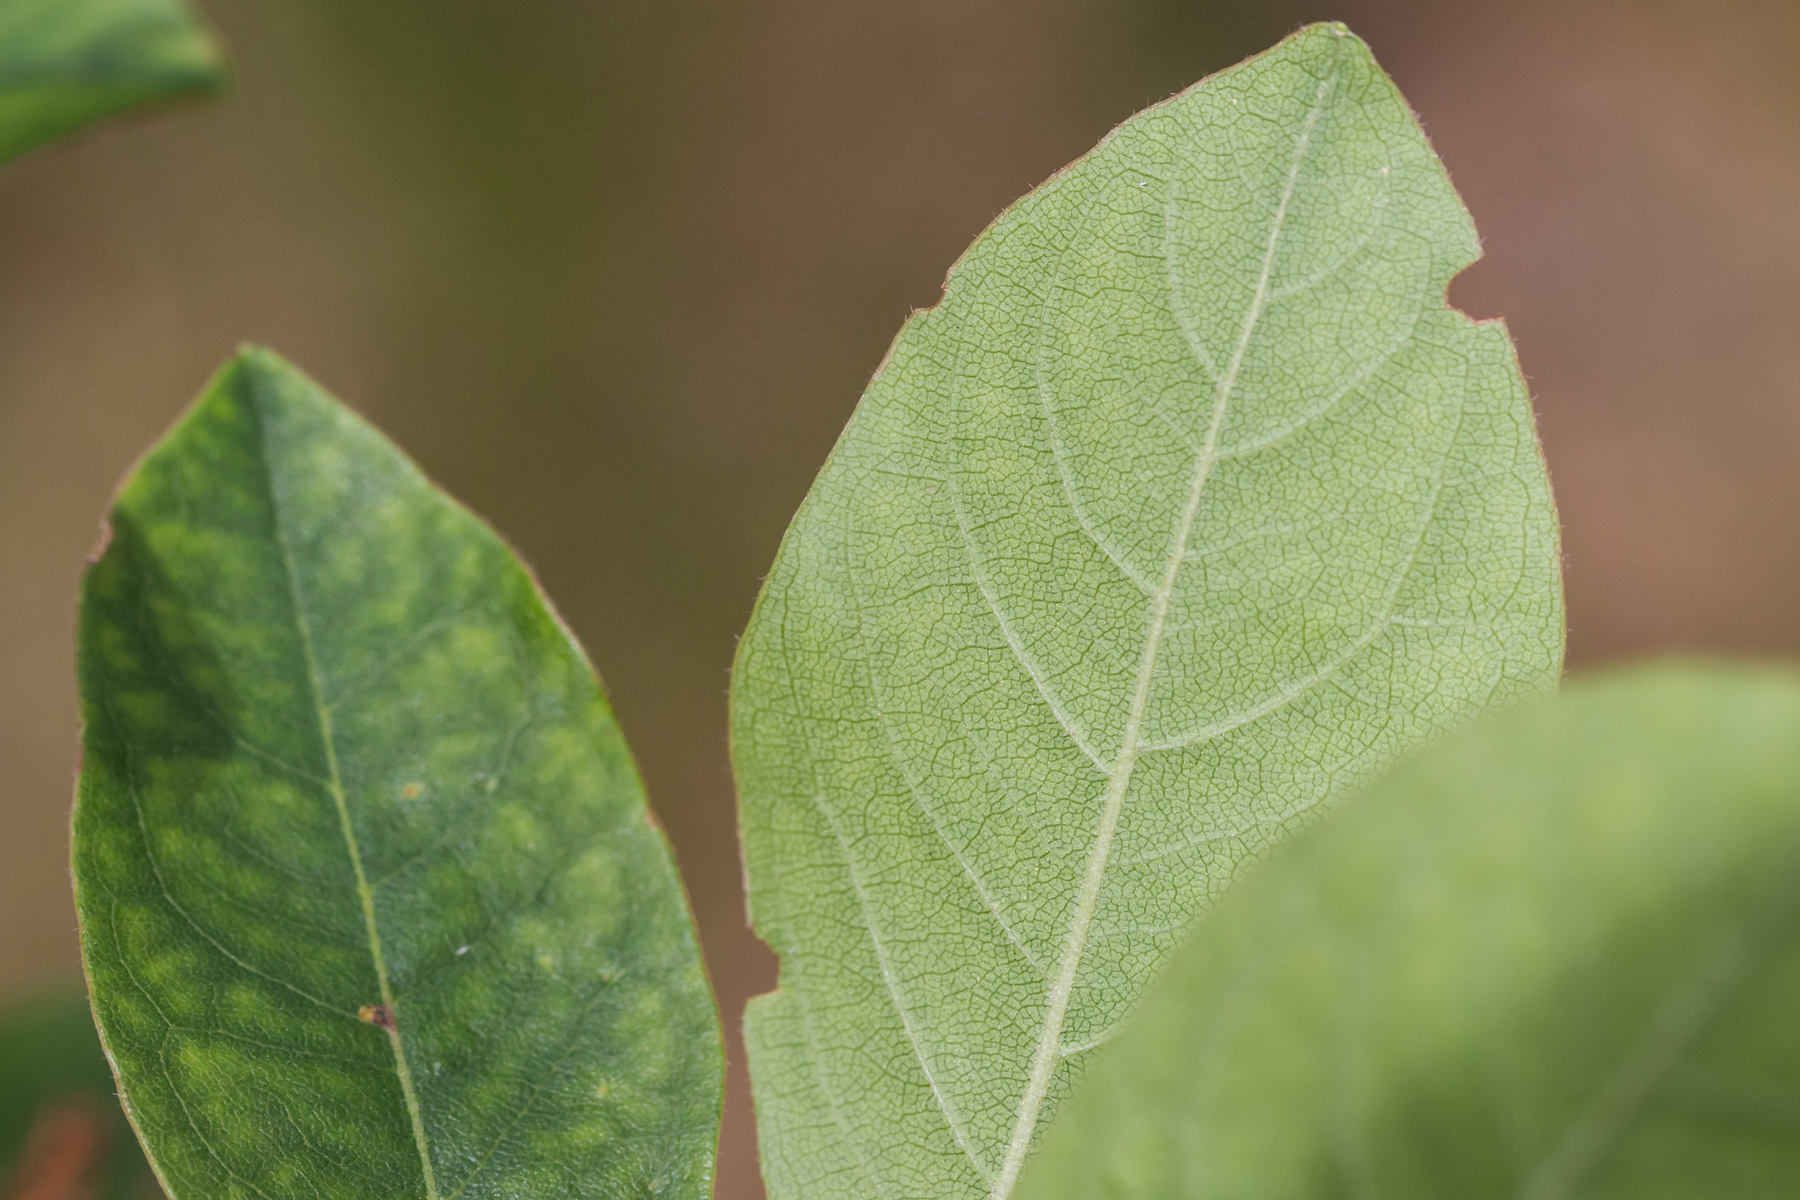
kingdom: Plantae
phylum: Tracheophyta
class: Magnoliopsida
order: Ericales
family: Ericaceae
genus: Lyonia
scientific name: Lyonia mariana
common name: Staggerbush
